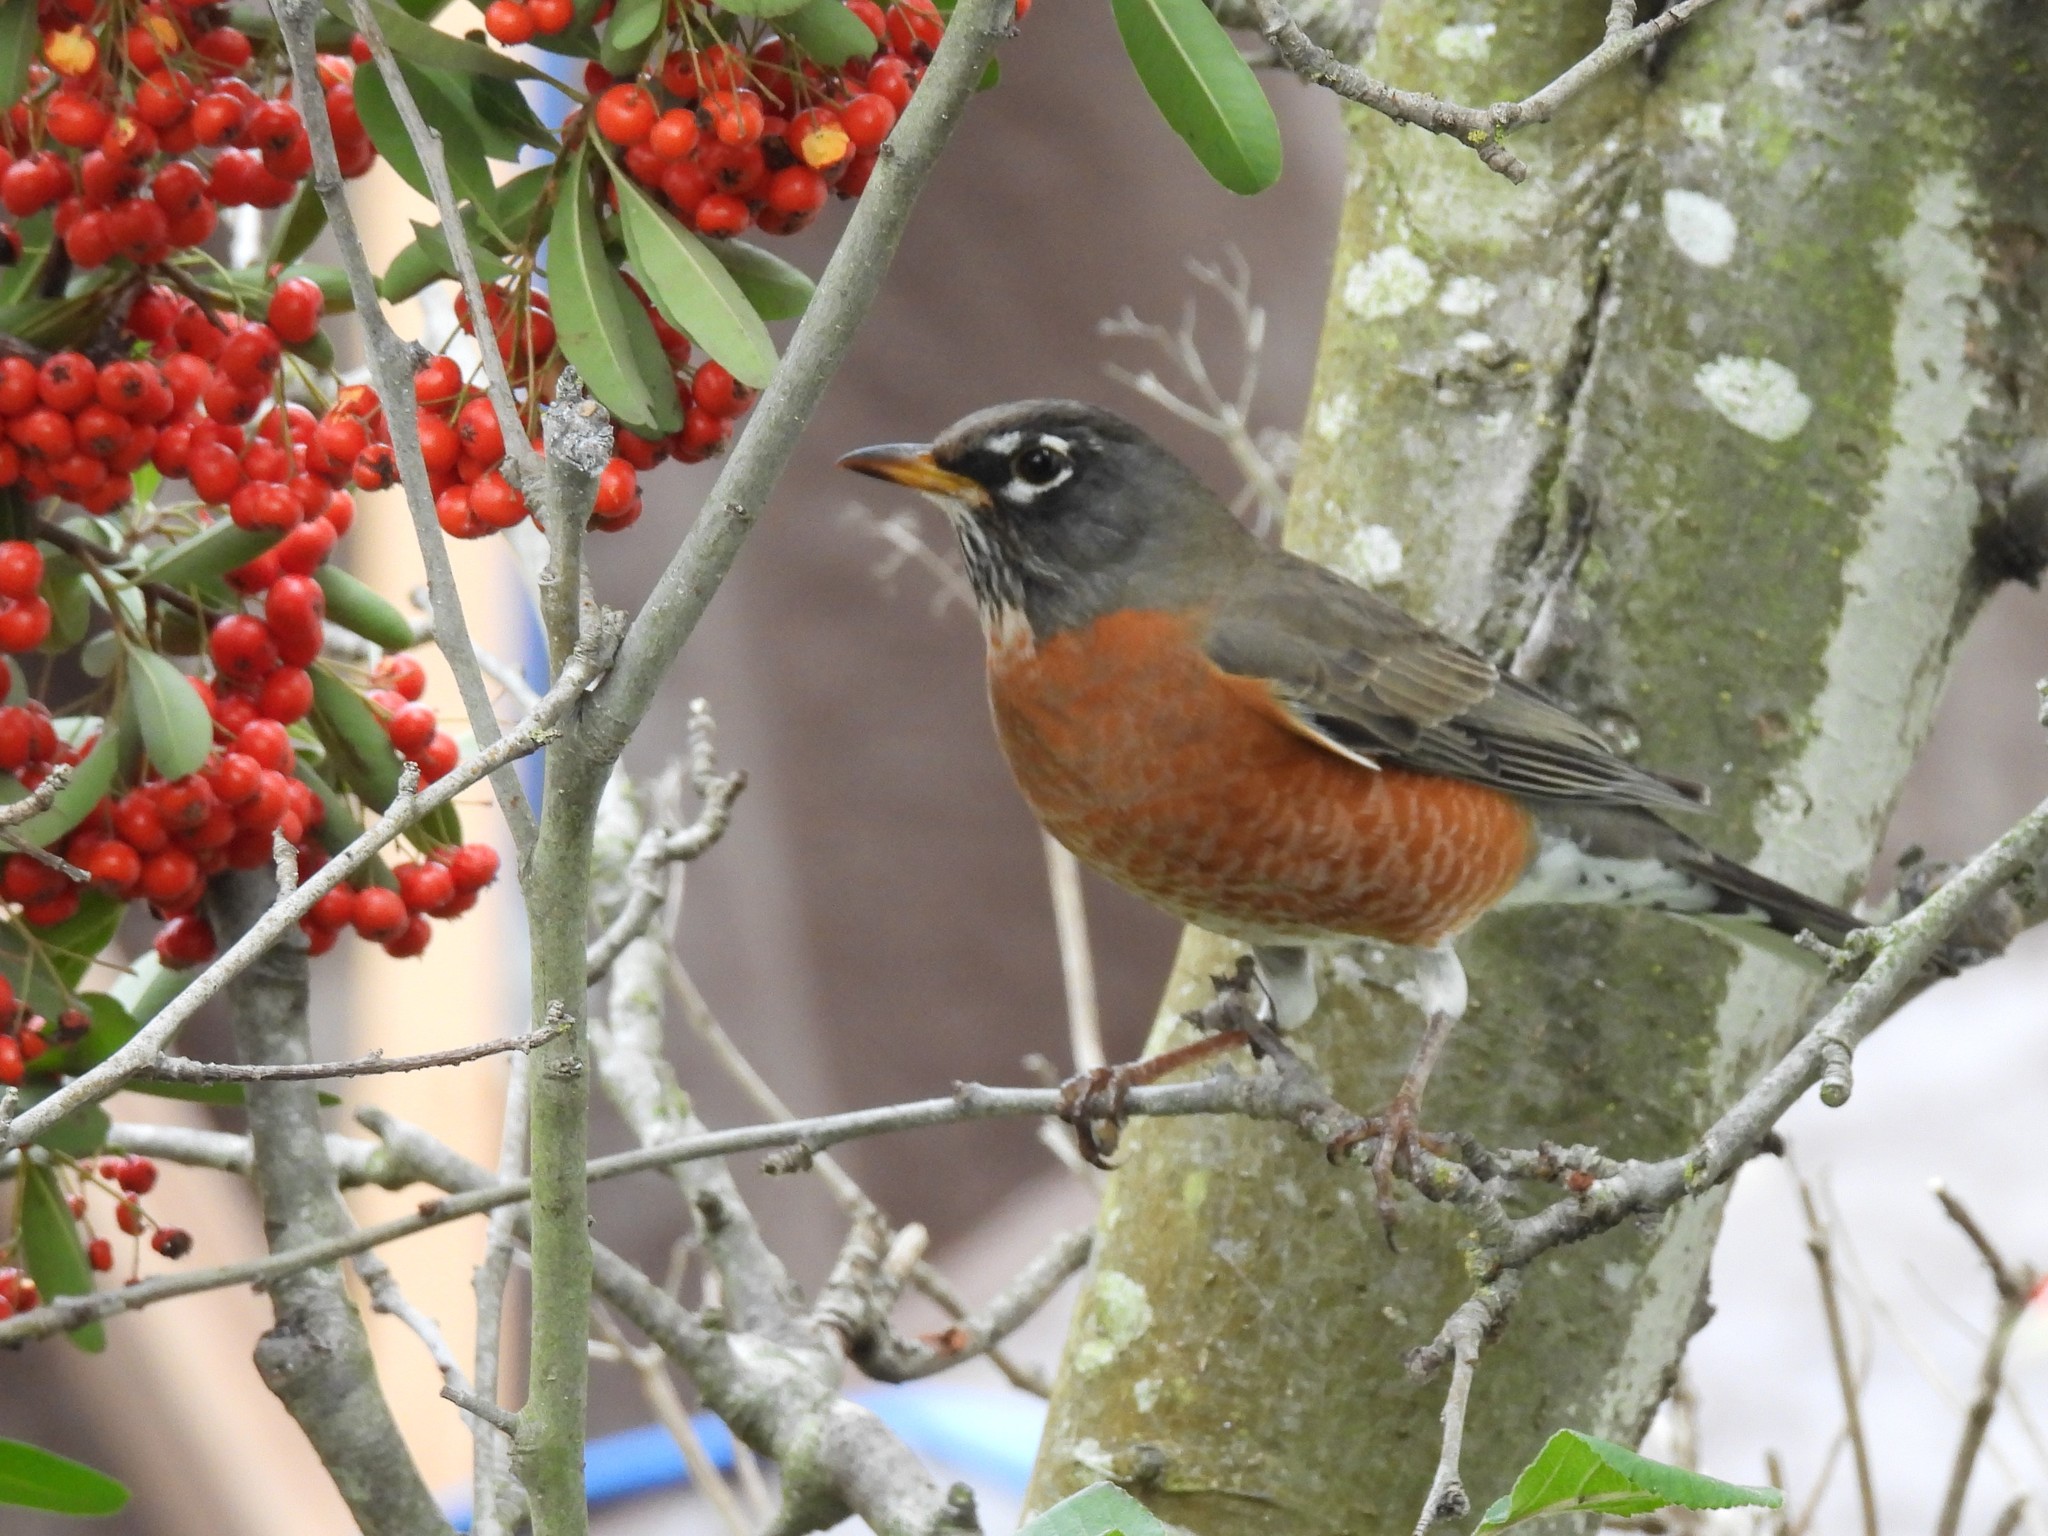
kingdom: Animalia
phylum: Chordata
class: Aves
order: Passeriformes
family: Turdidae
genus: Turdus
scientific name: Turdus migratorius
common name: American robin
